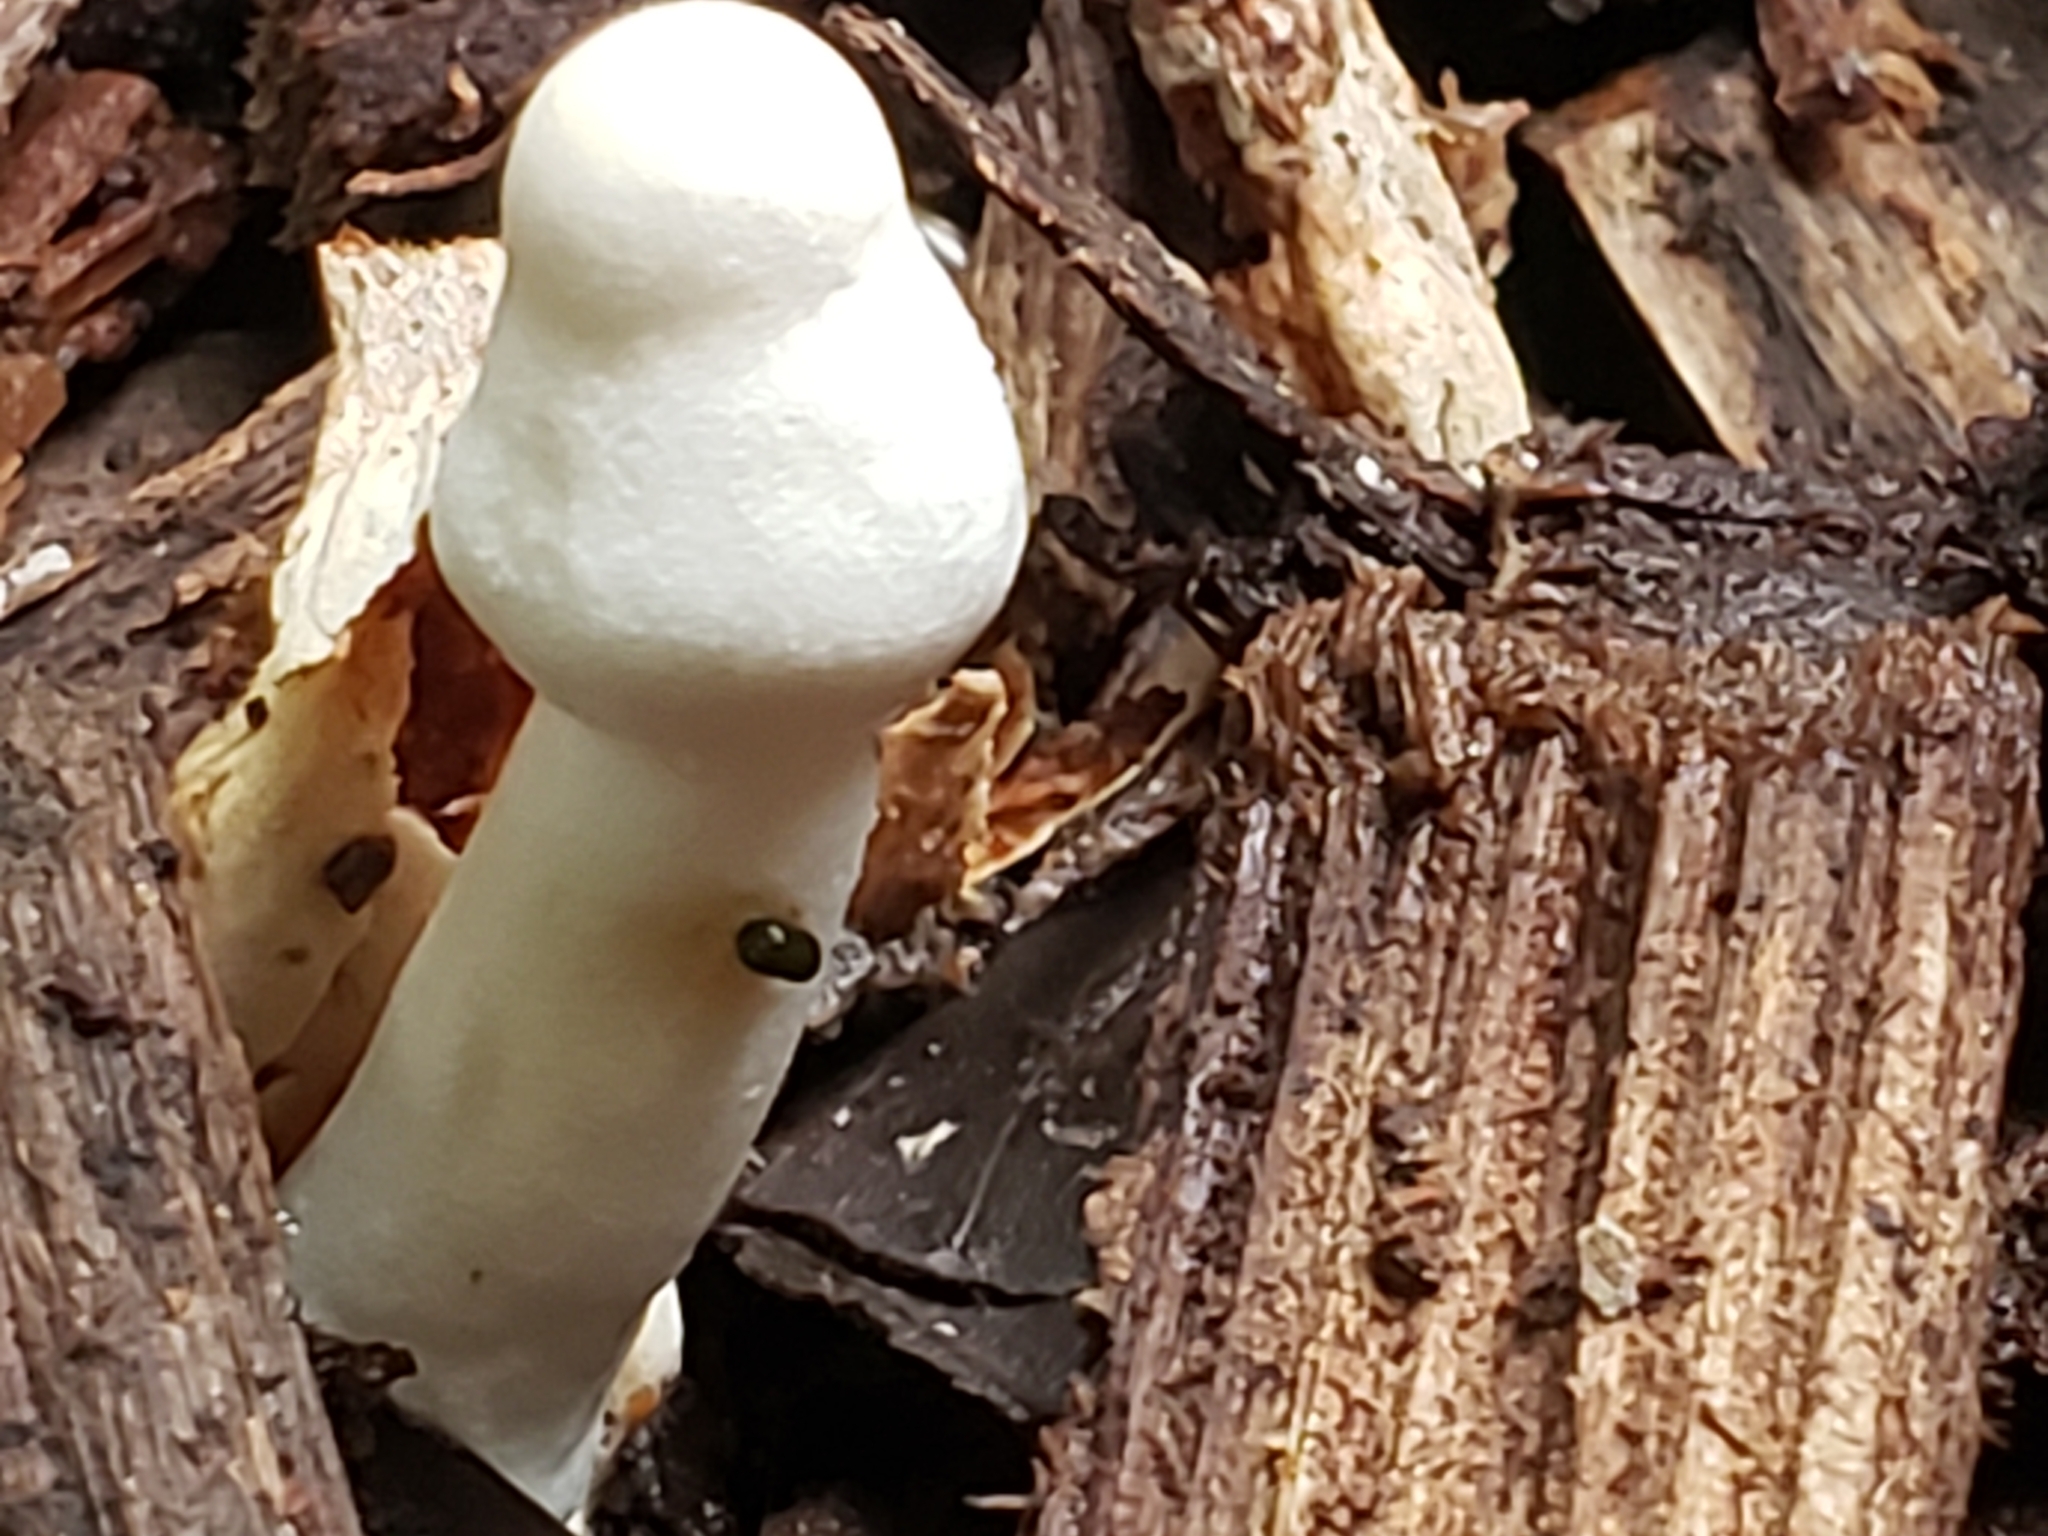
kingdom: Fungi
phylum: Basidiomycota
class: Agaricomycetes
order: Agaricales
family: Agaricaceae
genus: Leucocoprinus
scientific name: Leucocoprinus cepistipes
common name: Onion-stalk parasol
